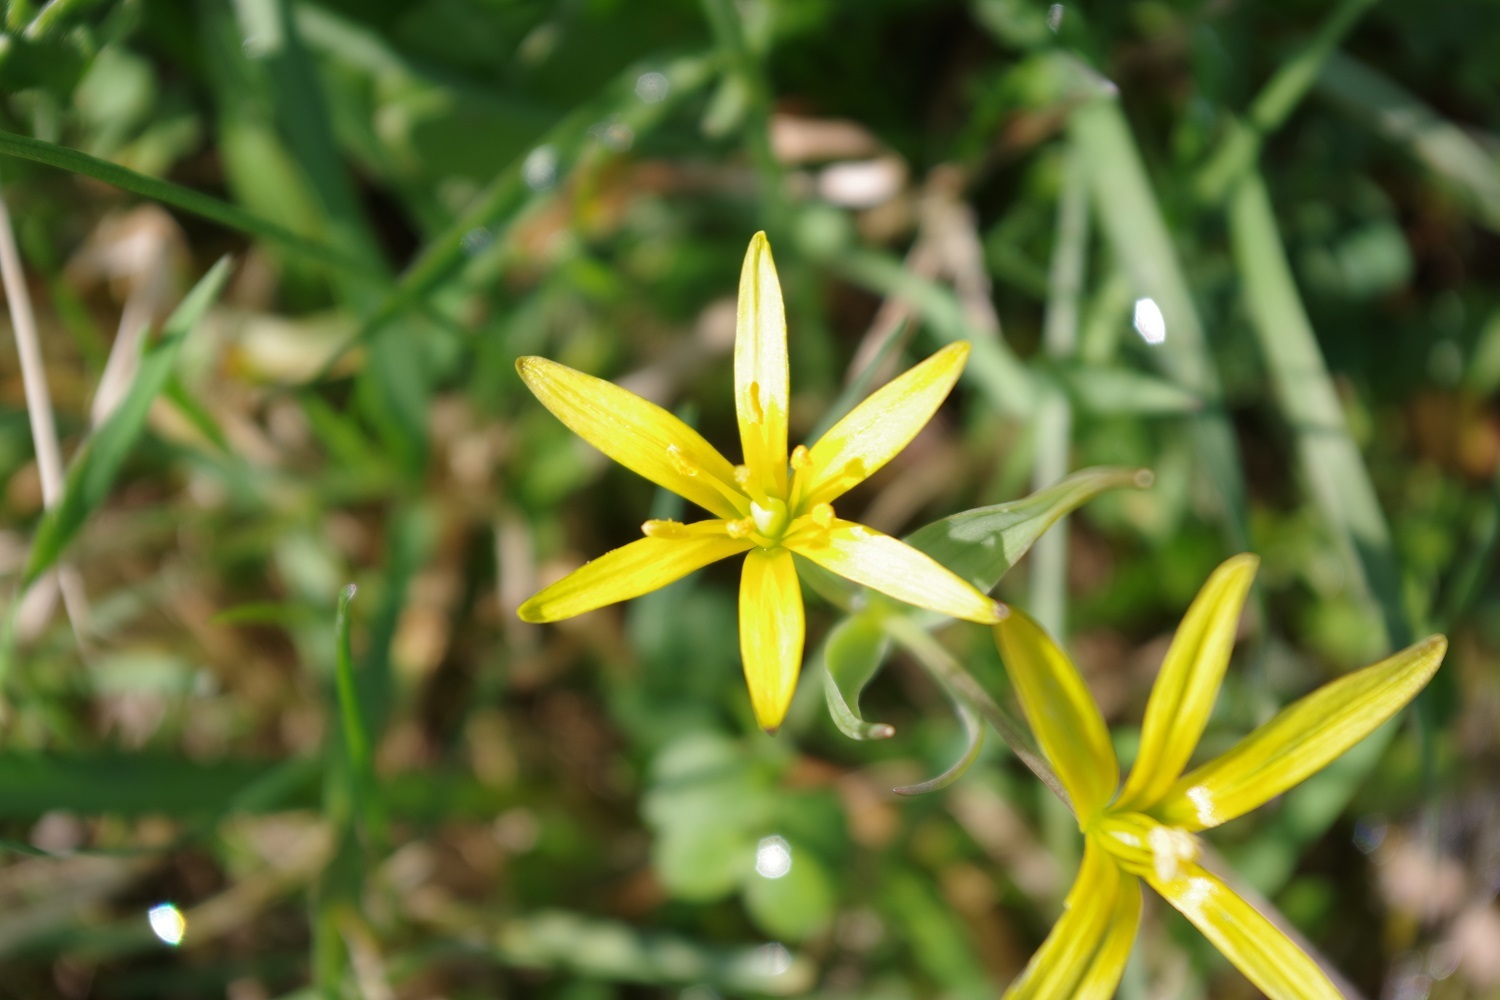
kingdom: Plantae
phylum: Tracheophyta
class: Liliopsida
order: Liliales
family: Liliaceae
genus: Gagea
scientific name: Gagea pratensis
